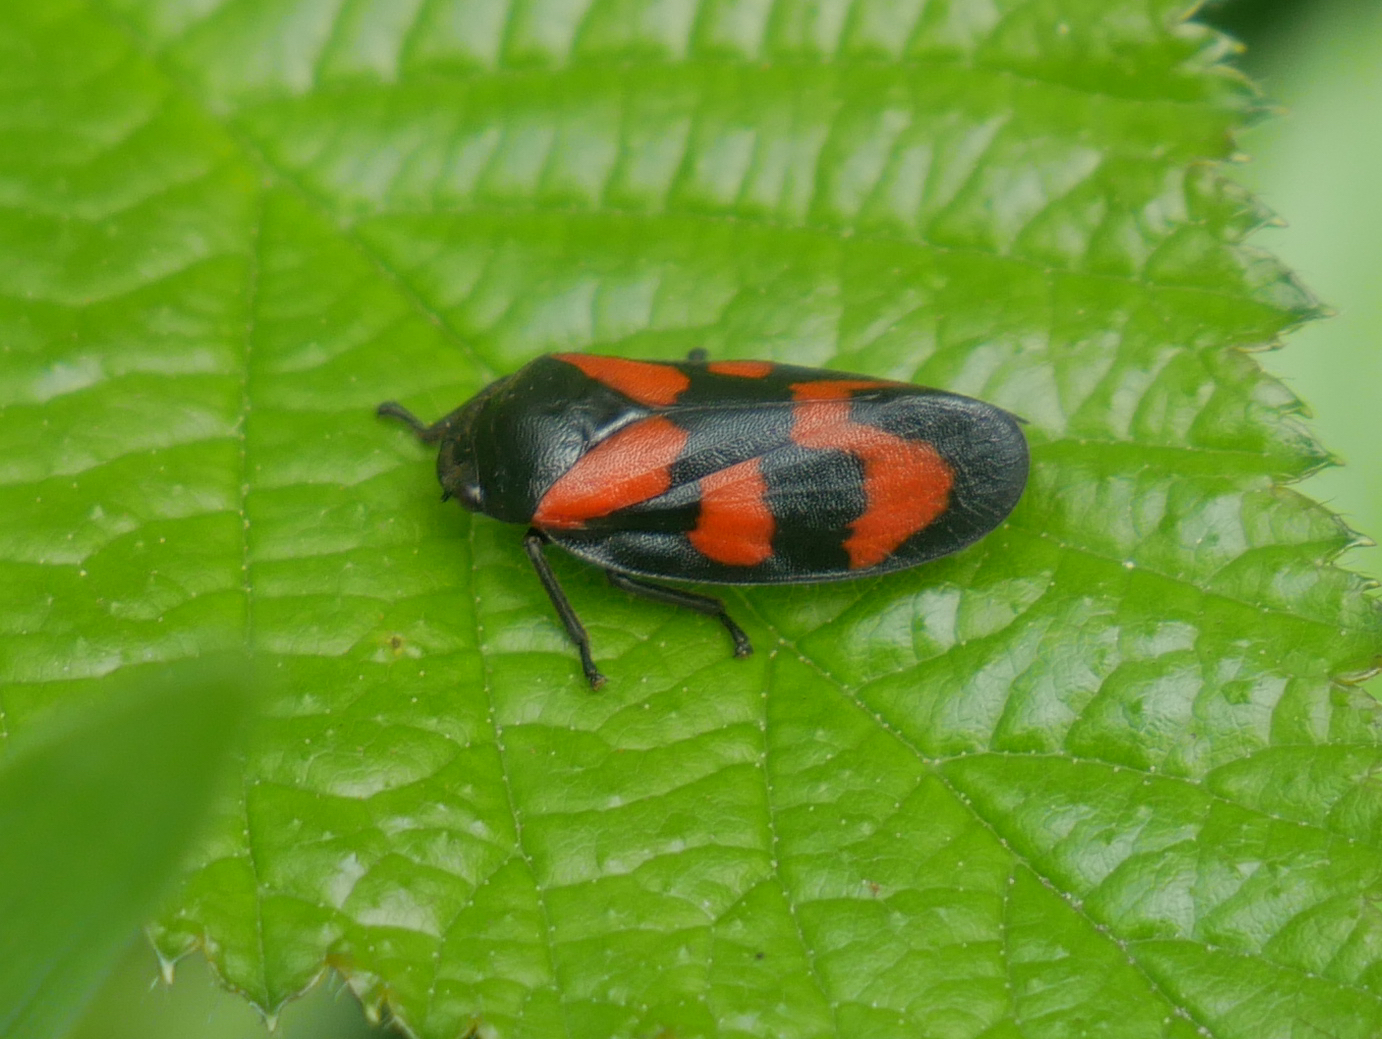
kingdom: Animalia
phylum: Arthropoda
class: Insecta
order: Hemiptera
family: Cercopidae
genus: Cercopis
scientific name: Cercopis vulnerata
